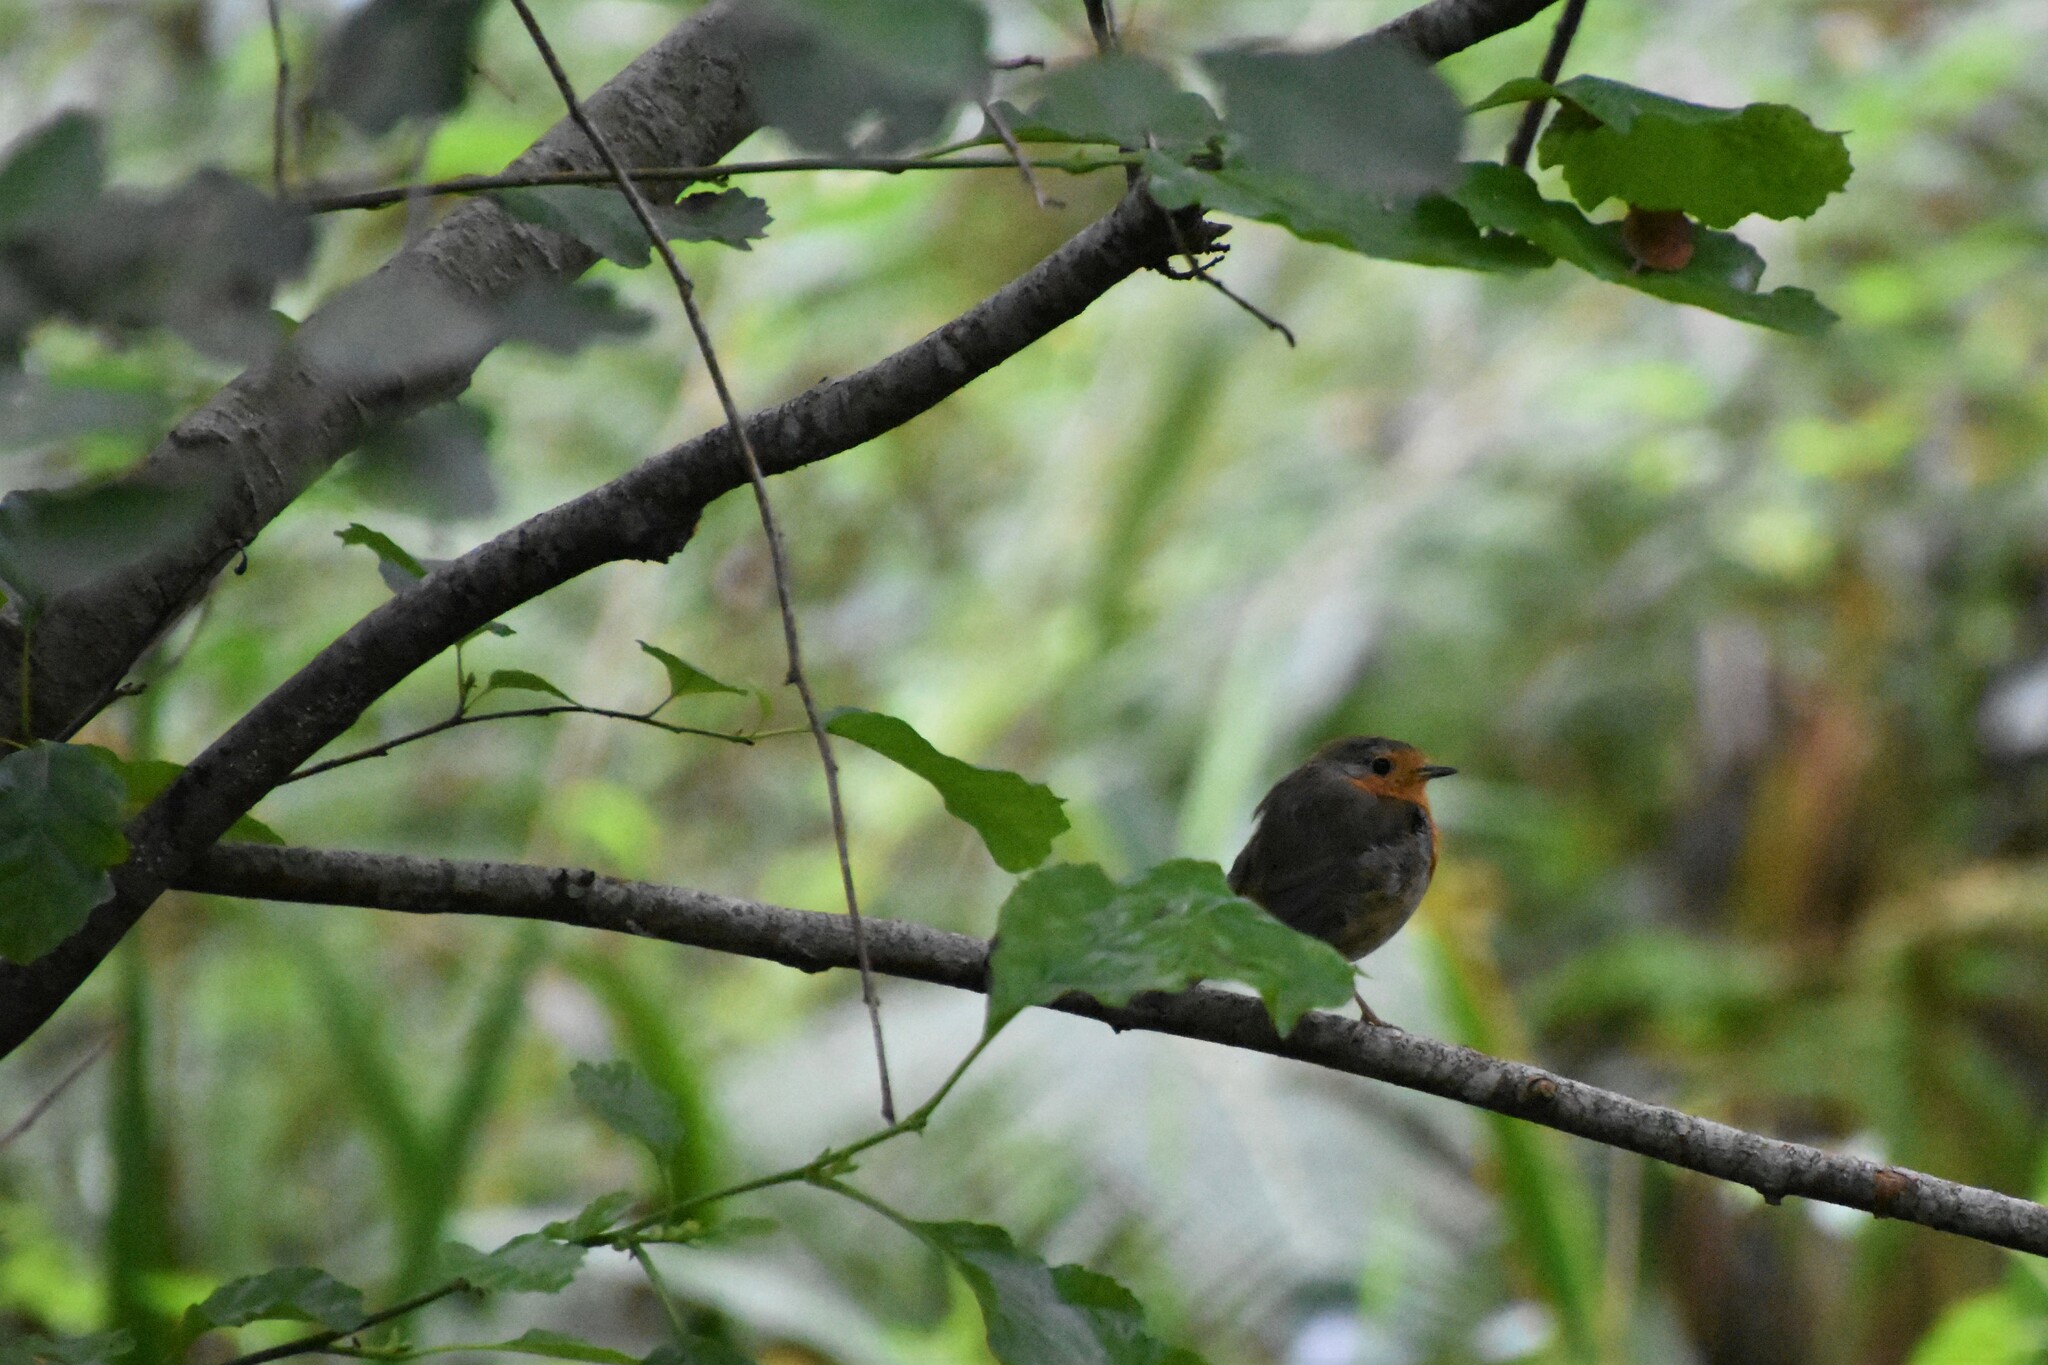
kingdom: Animalia
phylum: Chordata
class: Aves
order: Passeriformes
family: Muscicapidae
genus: Erithacus
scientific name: Erithacus rubecula
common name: European robin
